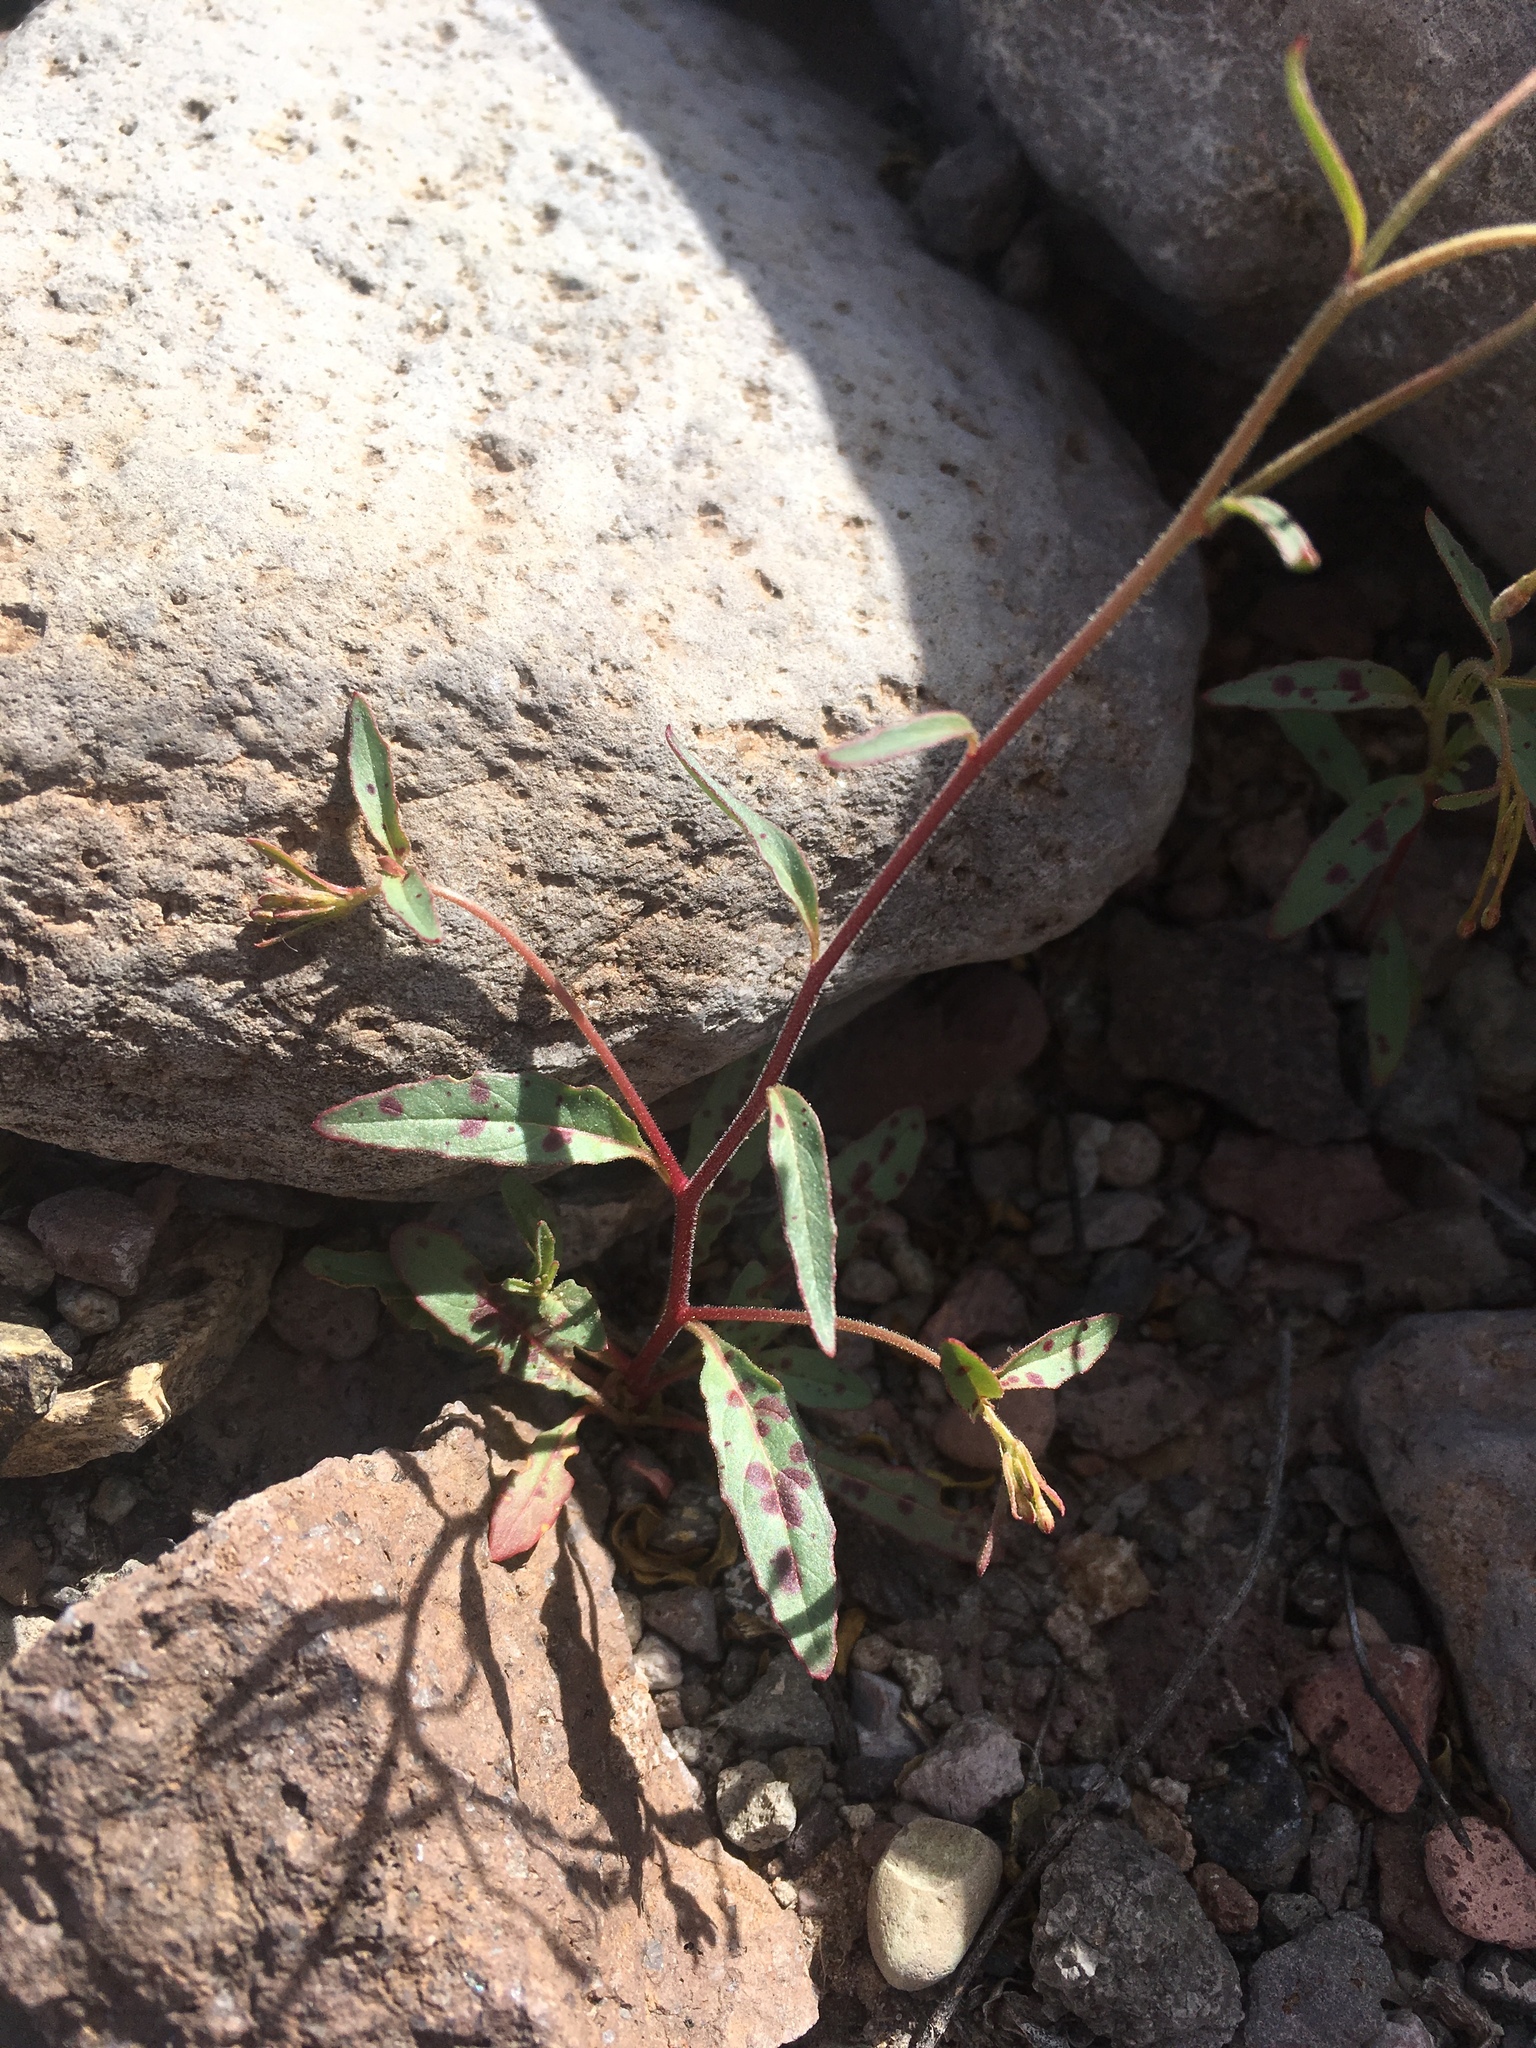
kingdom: Plantae
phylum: Tracheophyta
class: Magnoliopsida
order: Myrtales
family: Onagraceae
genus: Eremothera
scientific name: Eremothera chamaenerioides
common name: Longcapsule suncup
